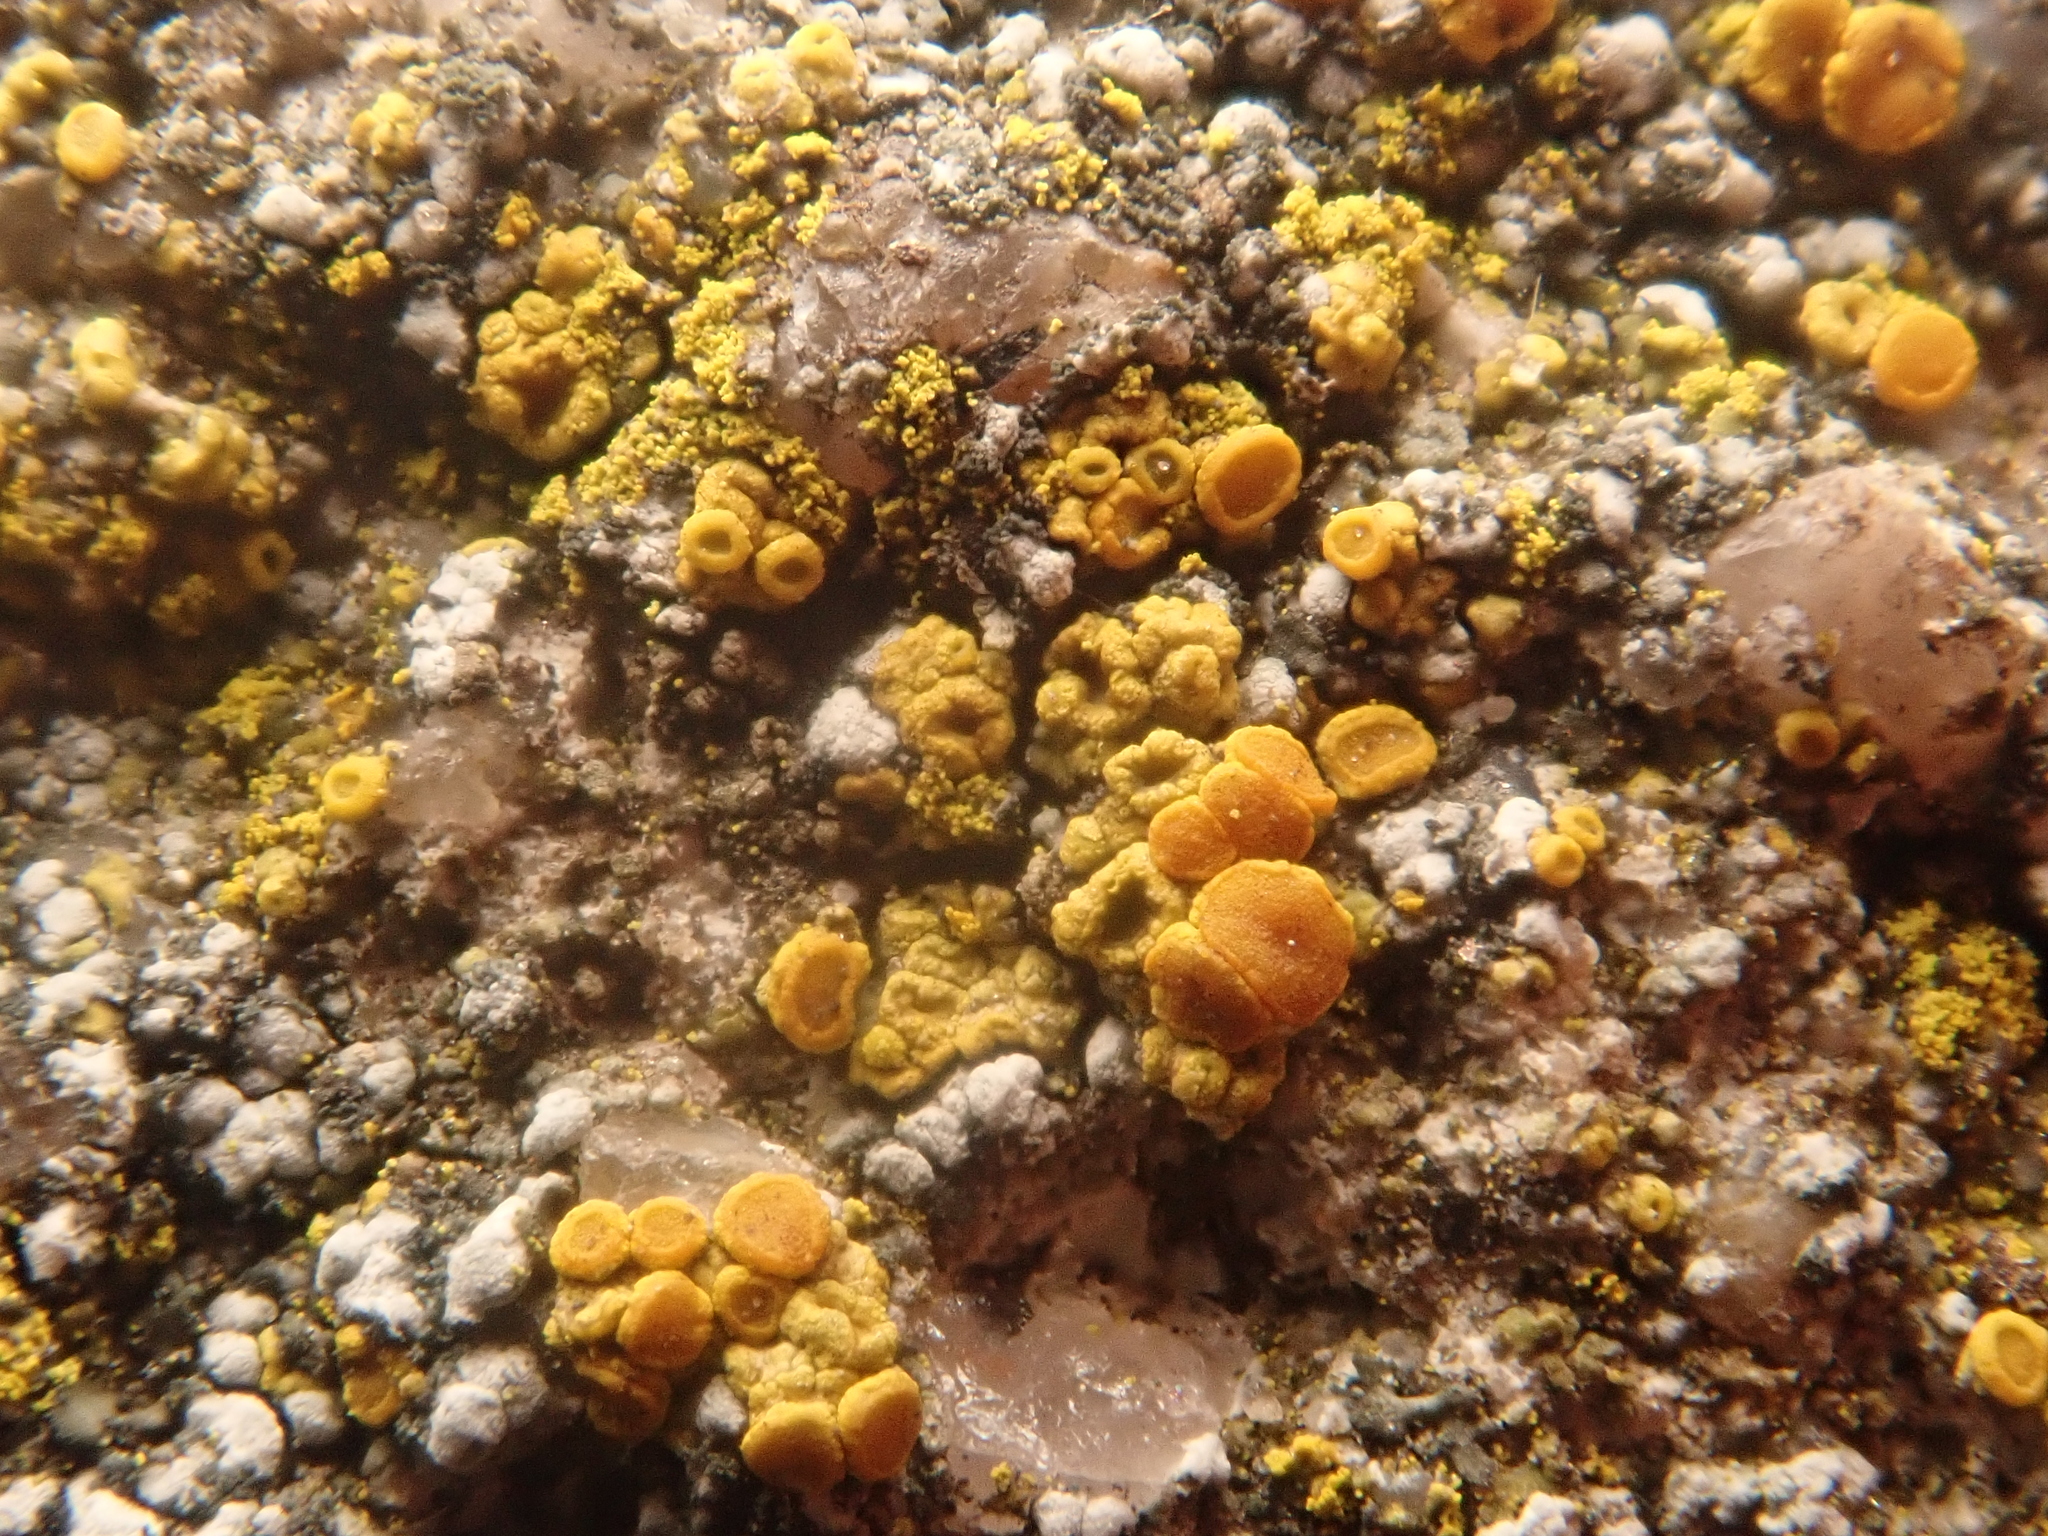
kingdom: Fungi
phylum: Ascomycota
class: Candelariomycetes
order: Candelariales
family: Candelariaceae
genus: Candelariella
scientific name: Candelariella vitellina
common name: Common goldspeck
